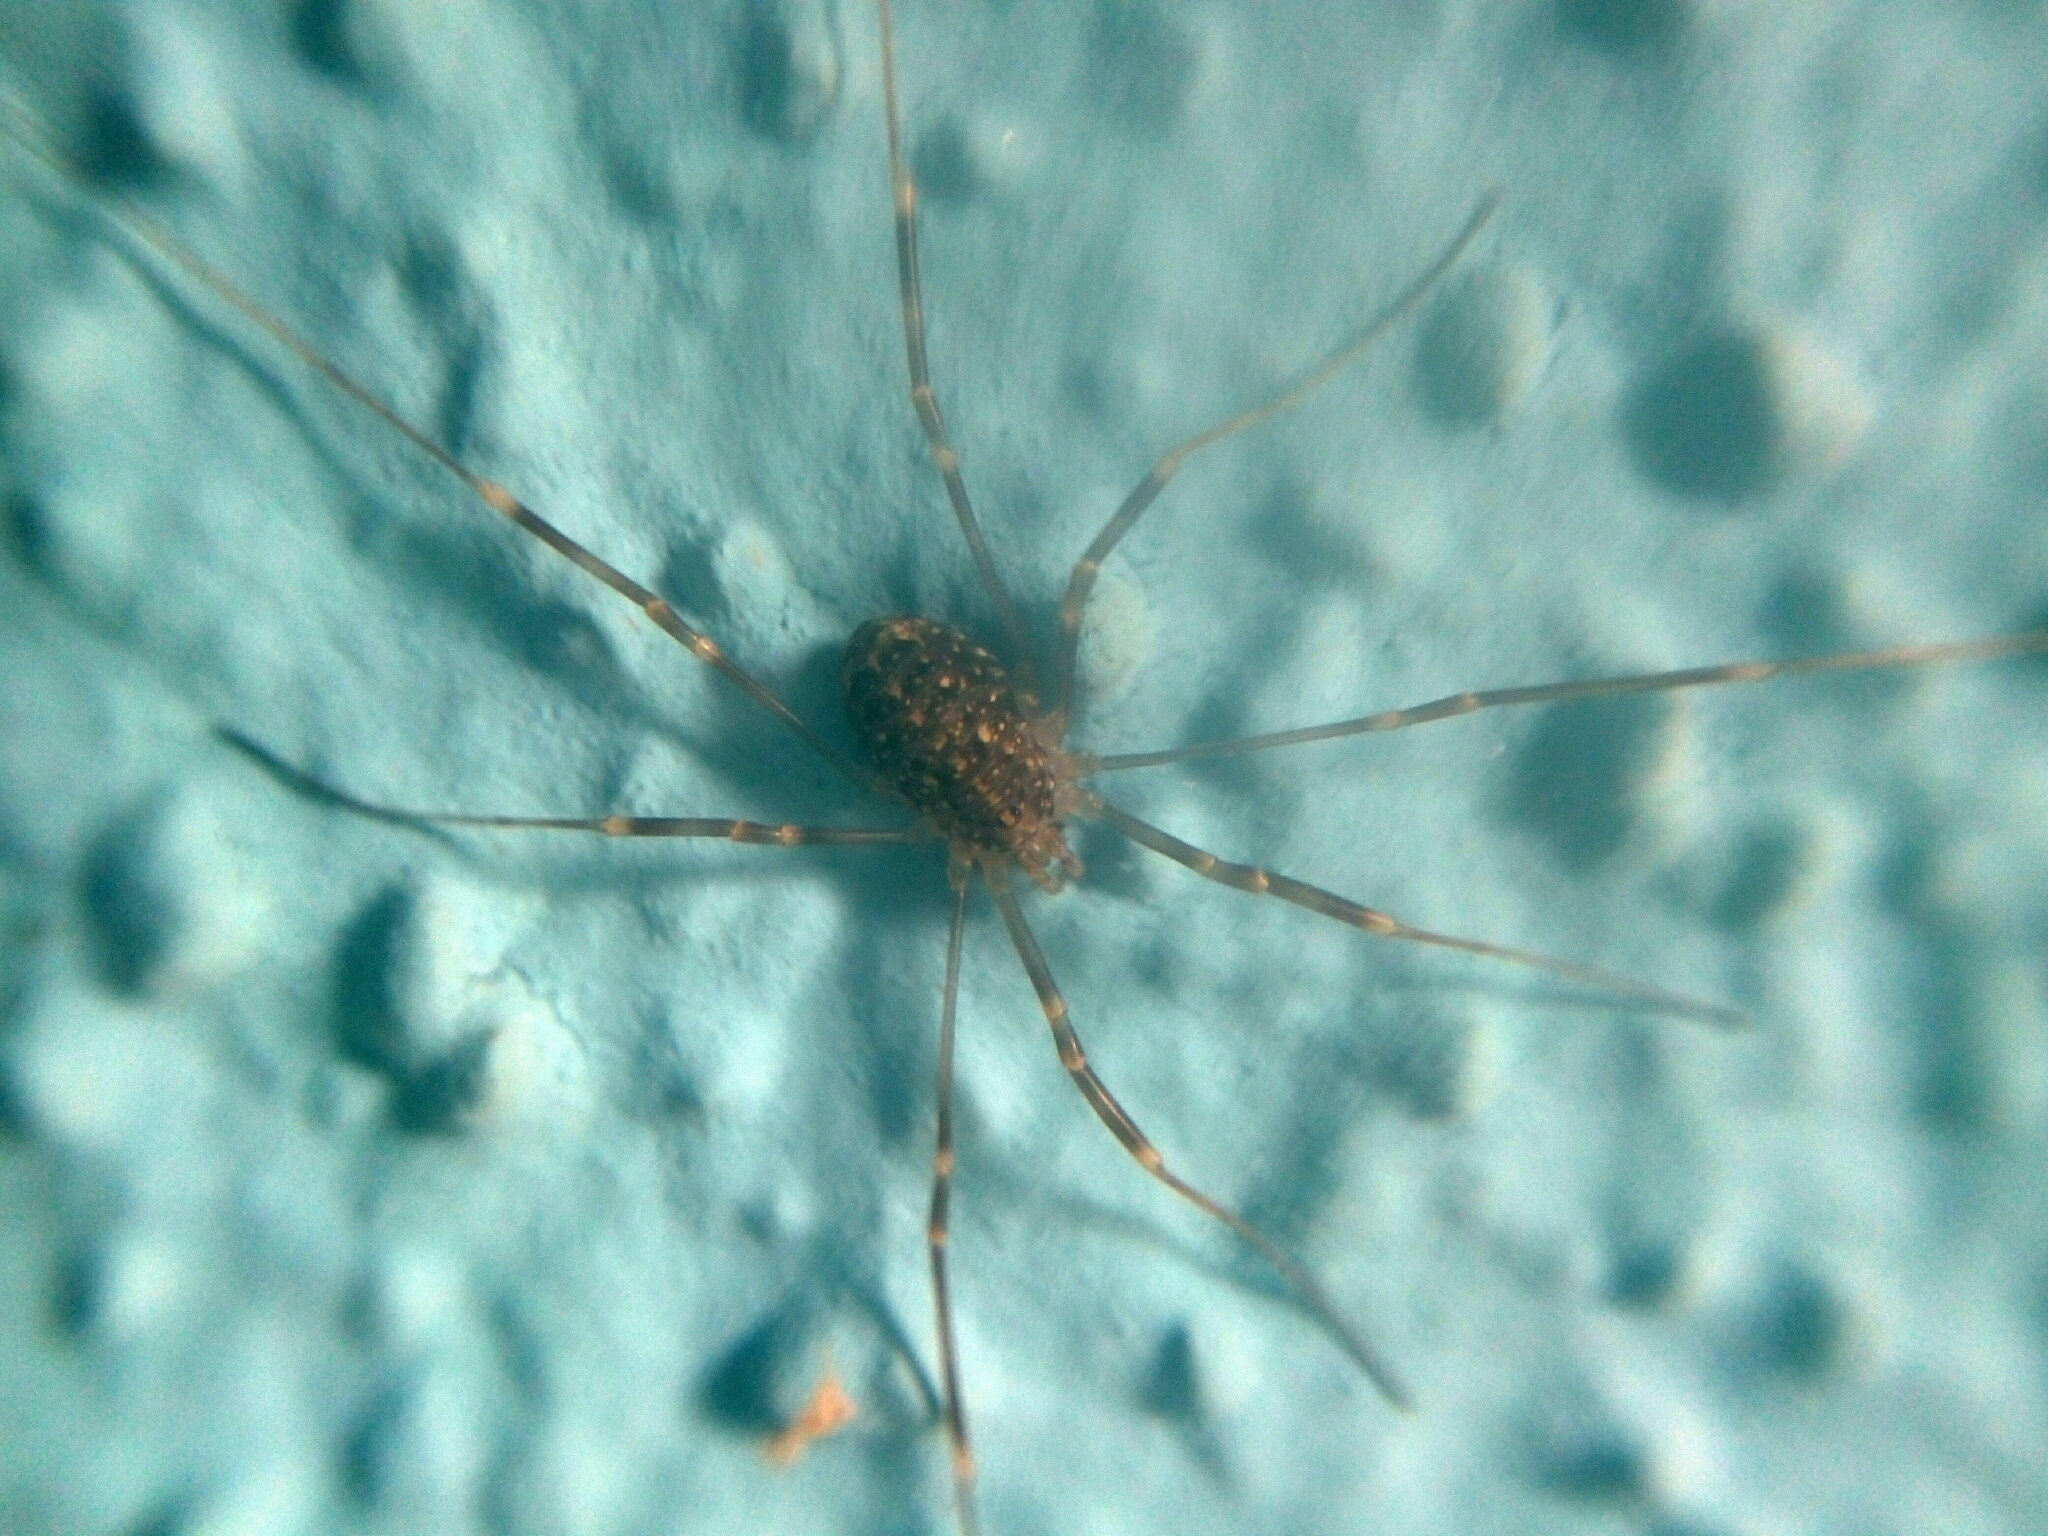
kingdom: Animalia
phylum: Arthropoda
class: Arachnida
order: Opiliones
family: Phalangiidae
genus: Opilio
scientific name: Opilio saxatilis
